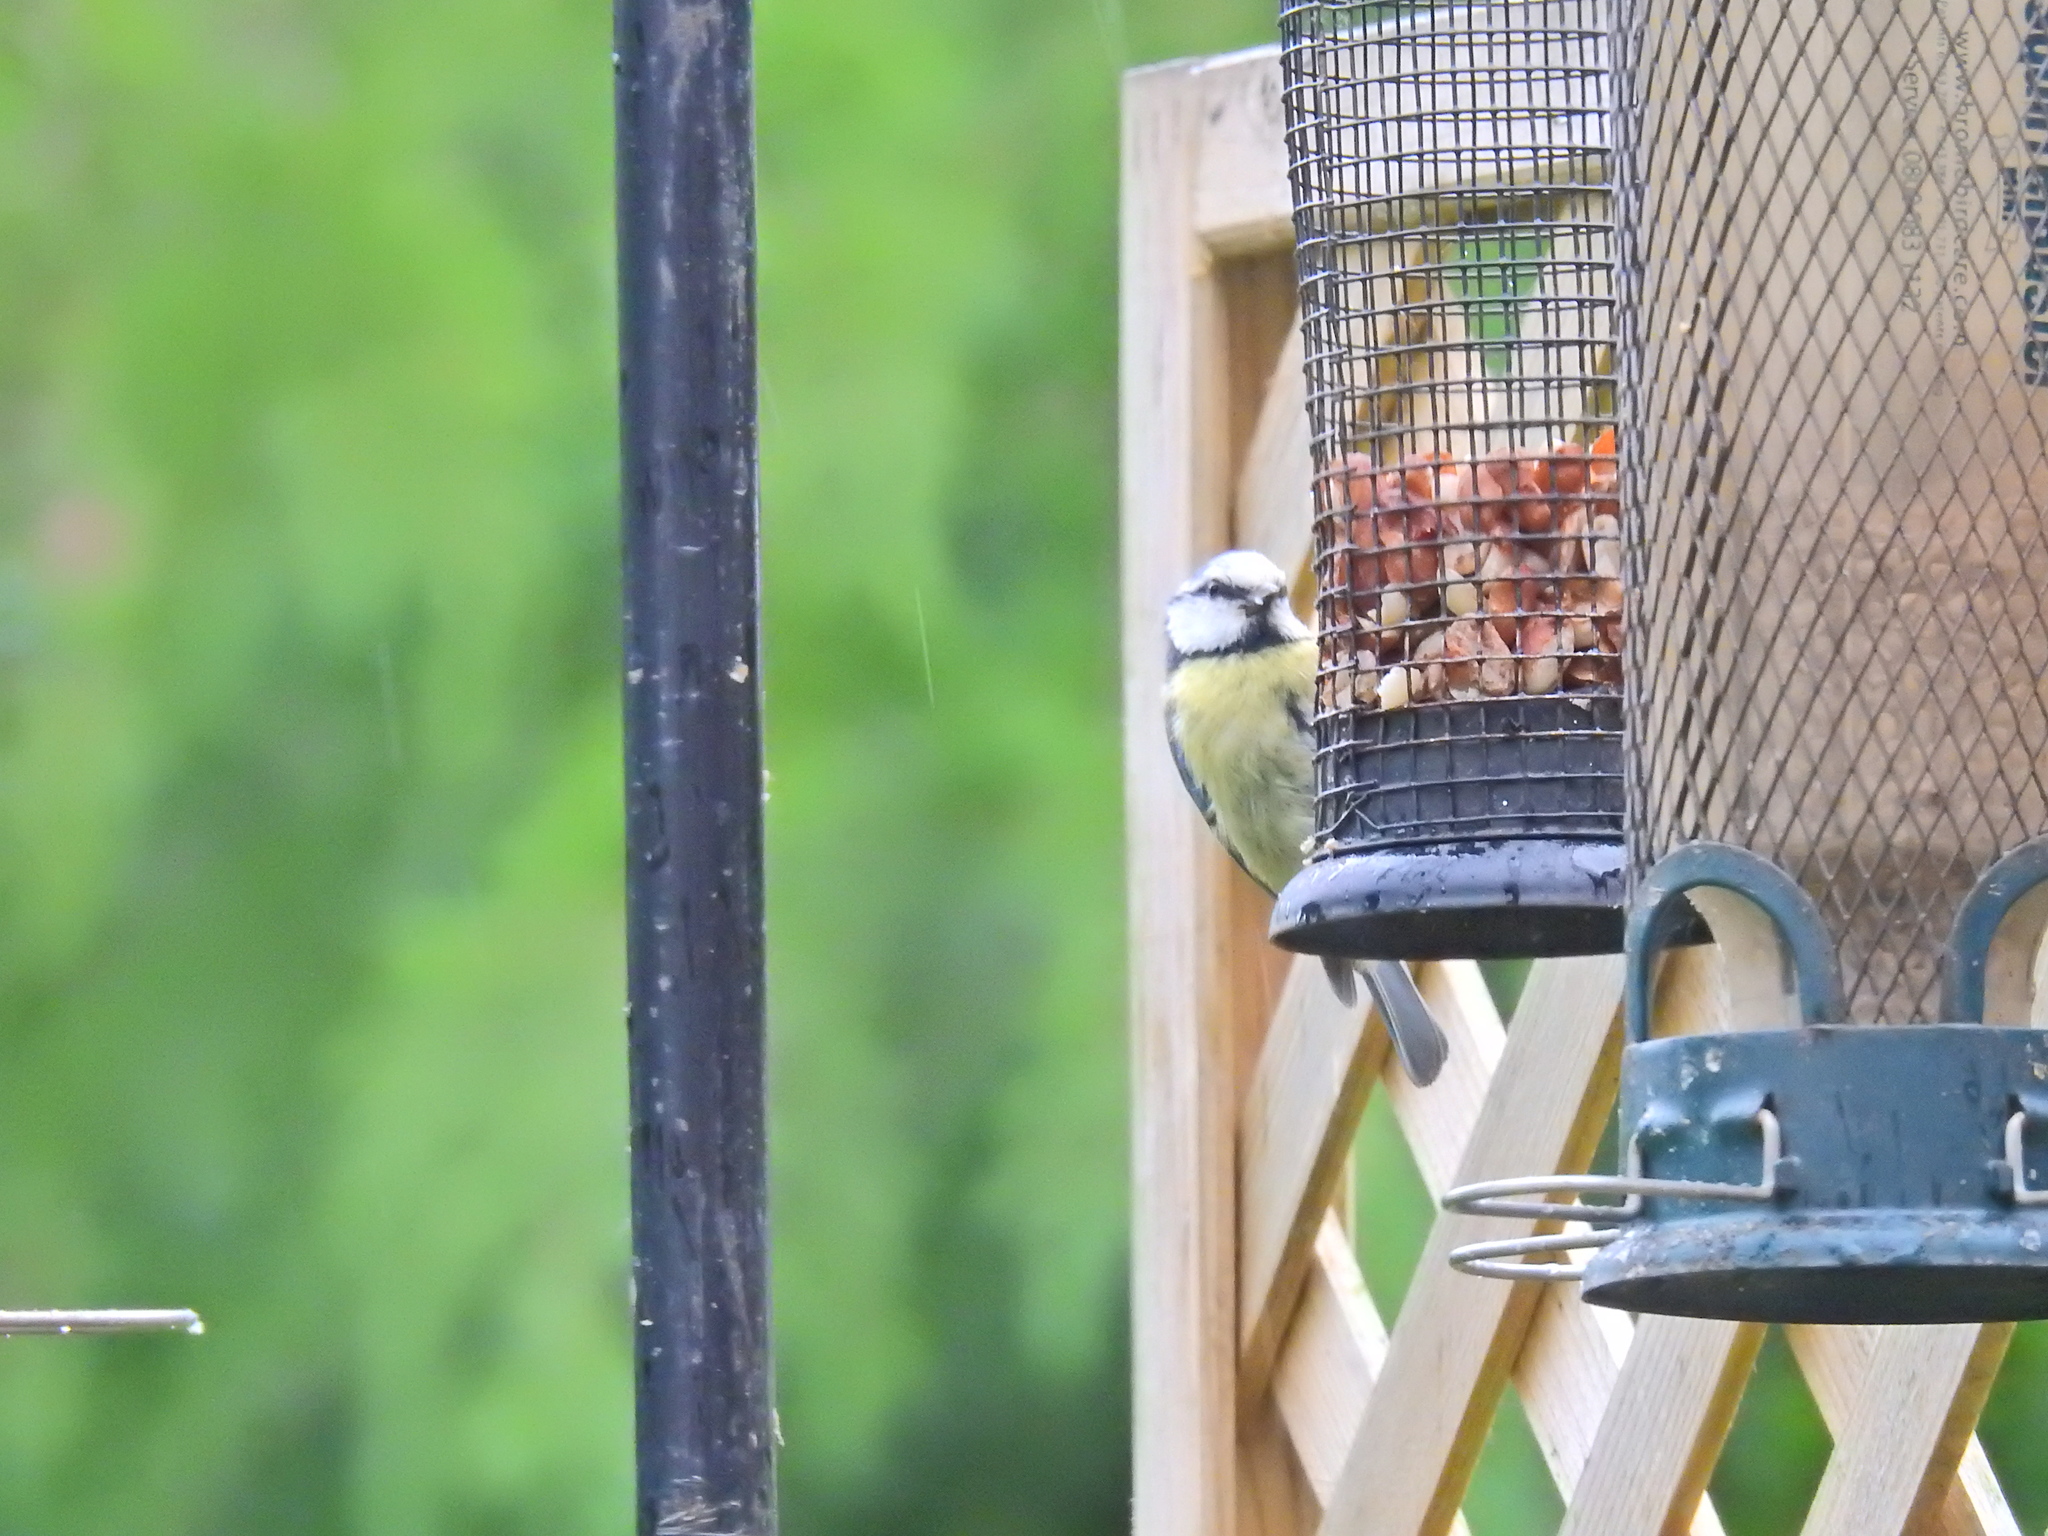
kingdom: Animalia
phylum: Chordata
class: Aves
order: Passeriformes
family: Paridae
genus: Cyanistes
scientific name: Cyanistes caeruleus
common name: Eurasian blue tit
